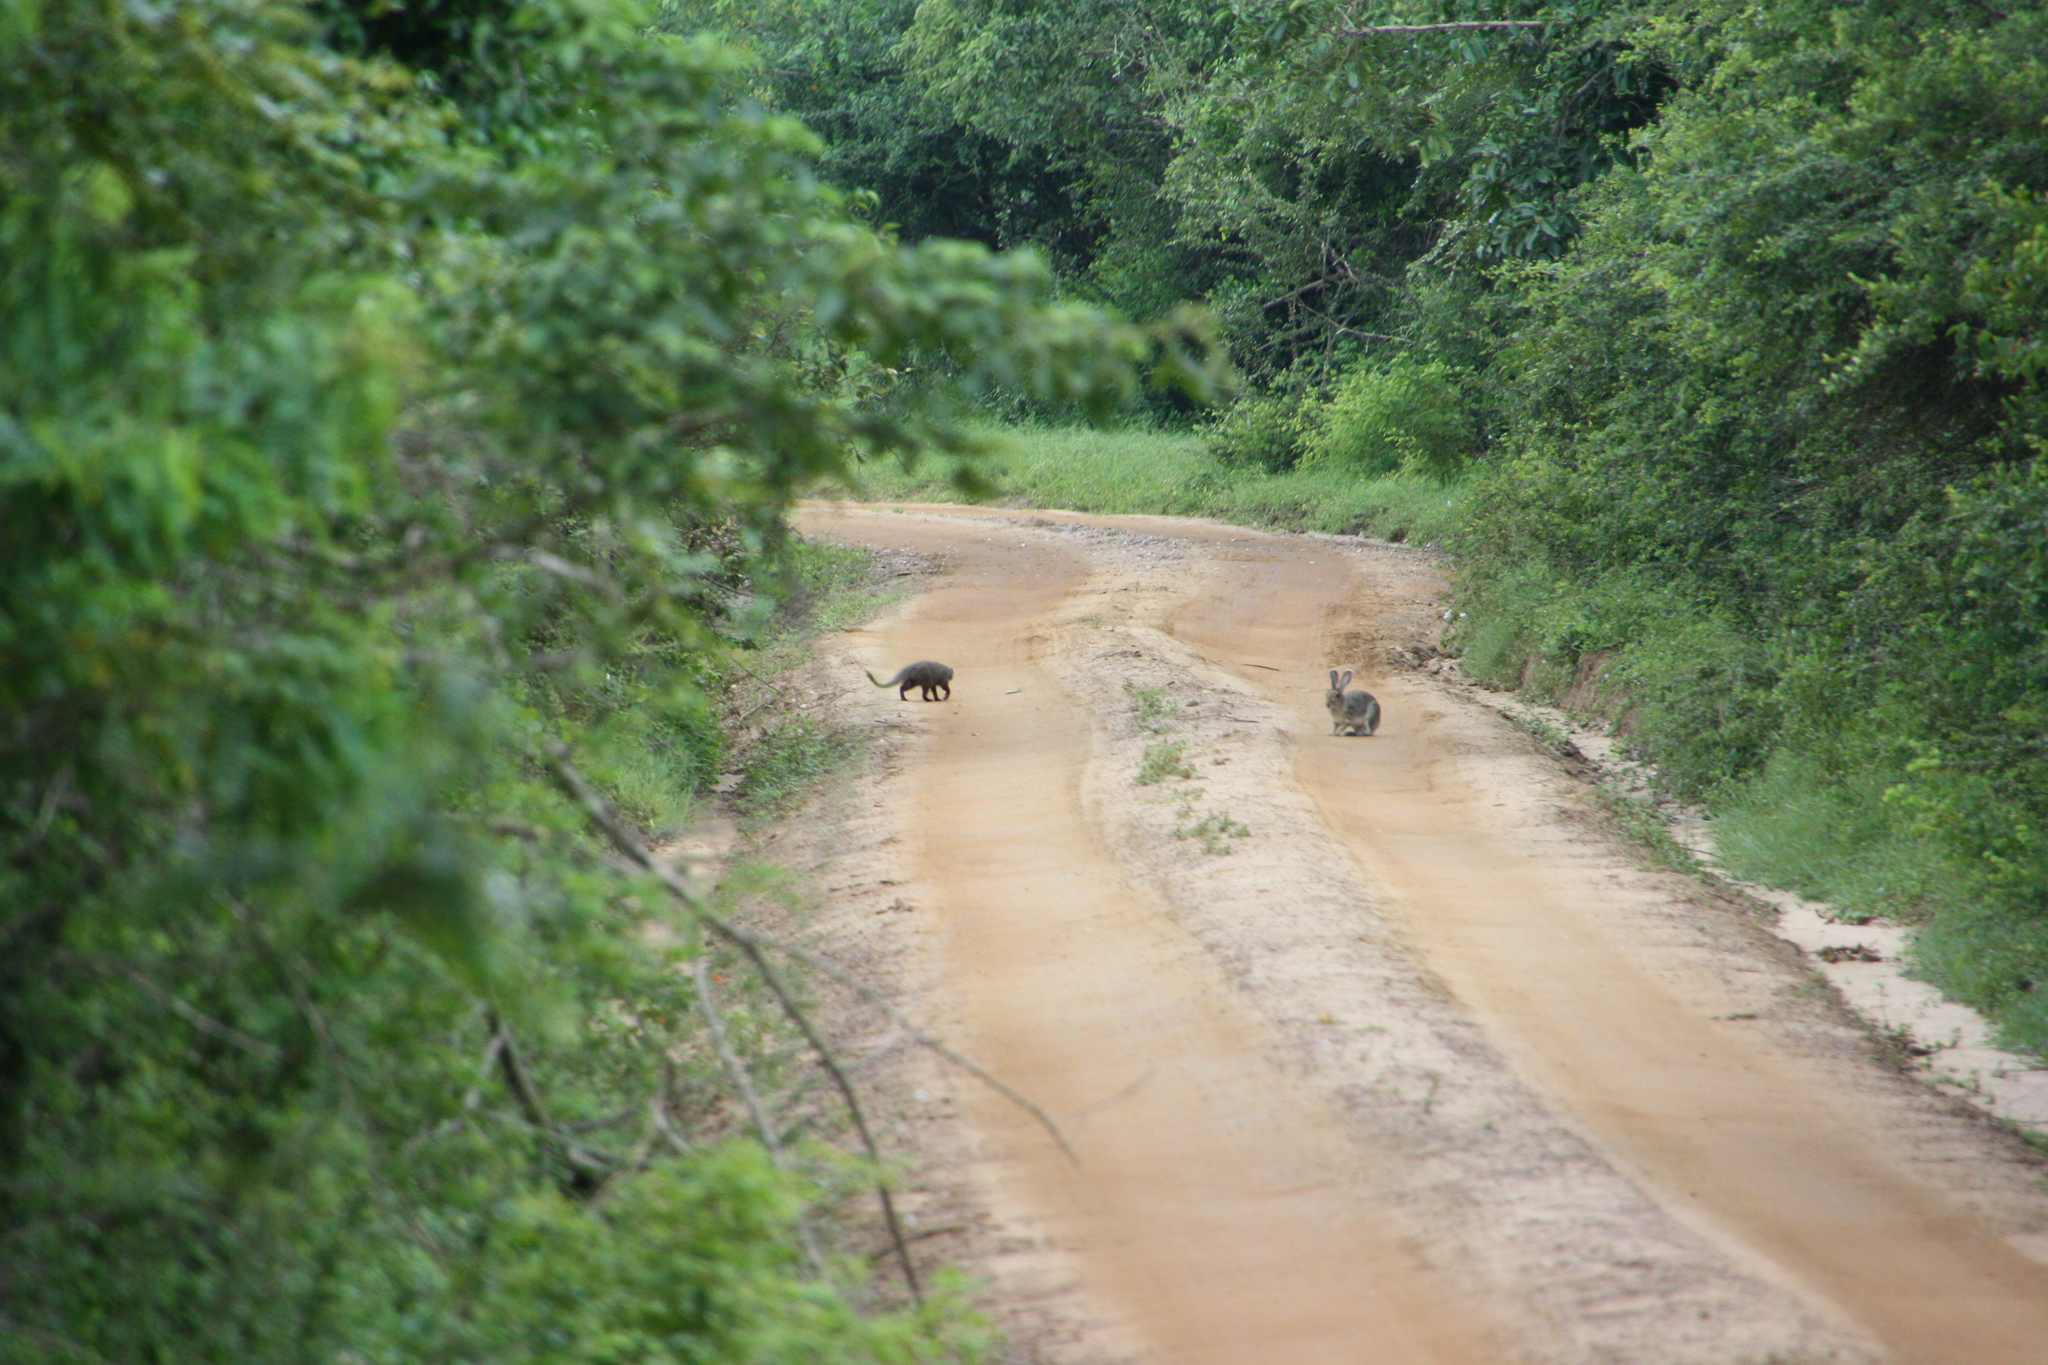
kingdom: Animalia
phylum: Chordata
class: Mammalia
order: Lagomorpha
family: Leporidae
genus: Lepus
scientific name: Lepus nigricollis
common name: Indian hare
